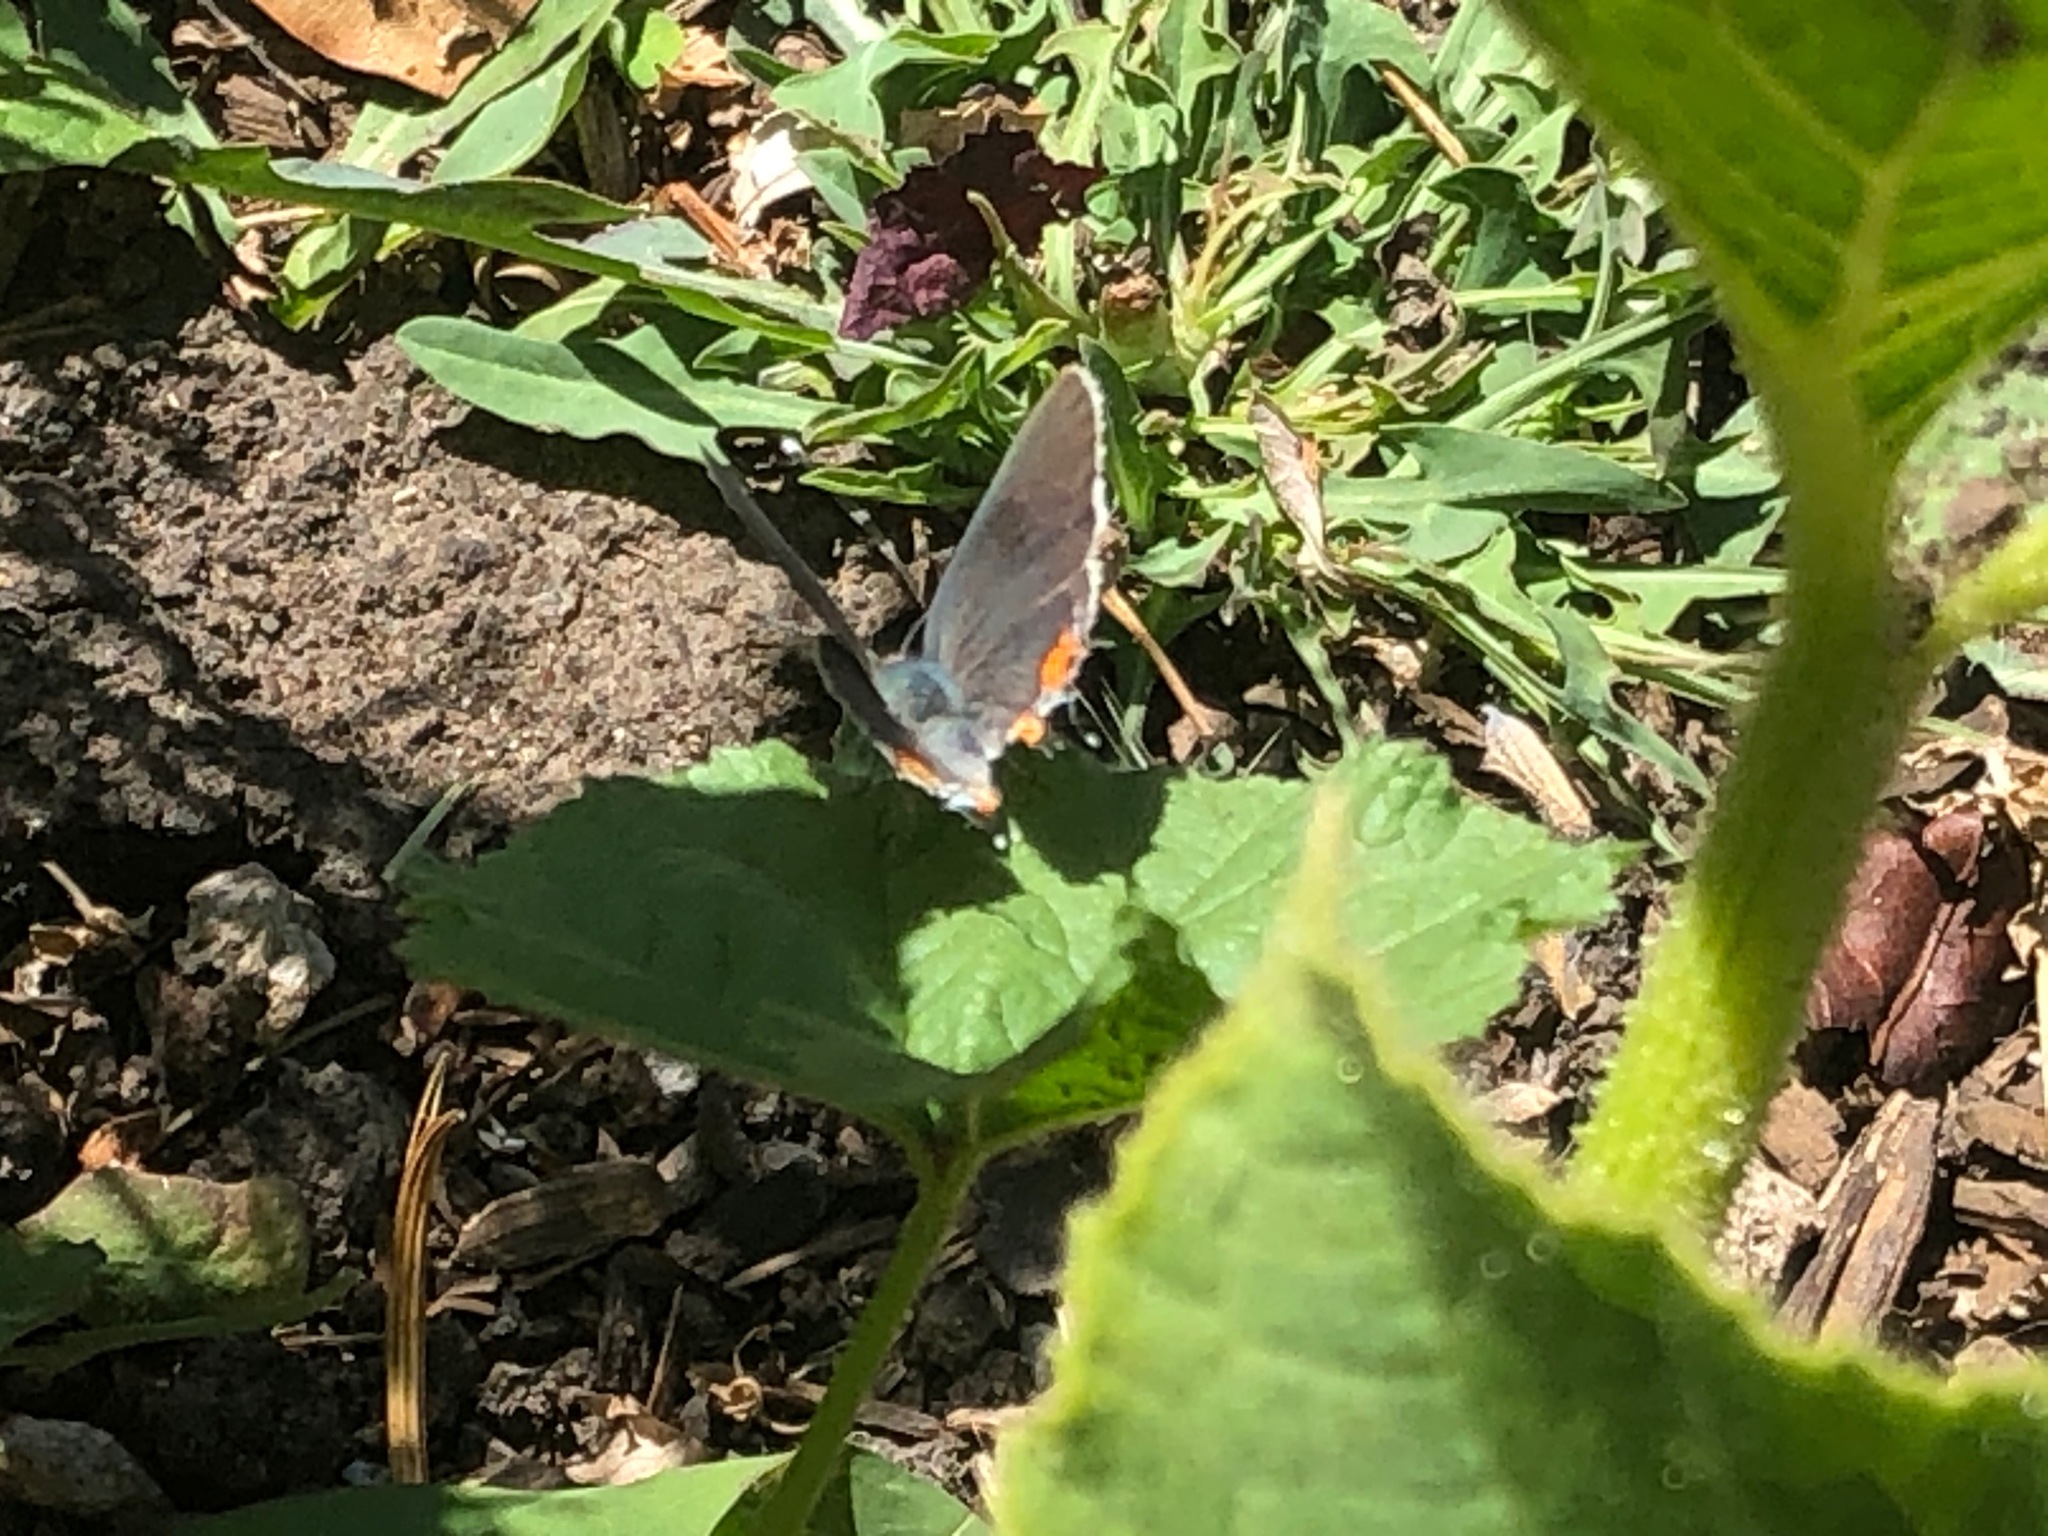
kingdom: Animalia
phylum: Arthropoda
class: Insecta
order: Lepidoptera
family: Lycaenidae
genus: Strymon
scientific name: Strymon melinus
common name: Gray hairstreak
